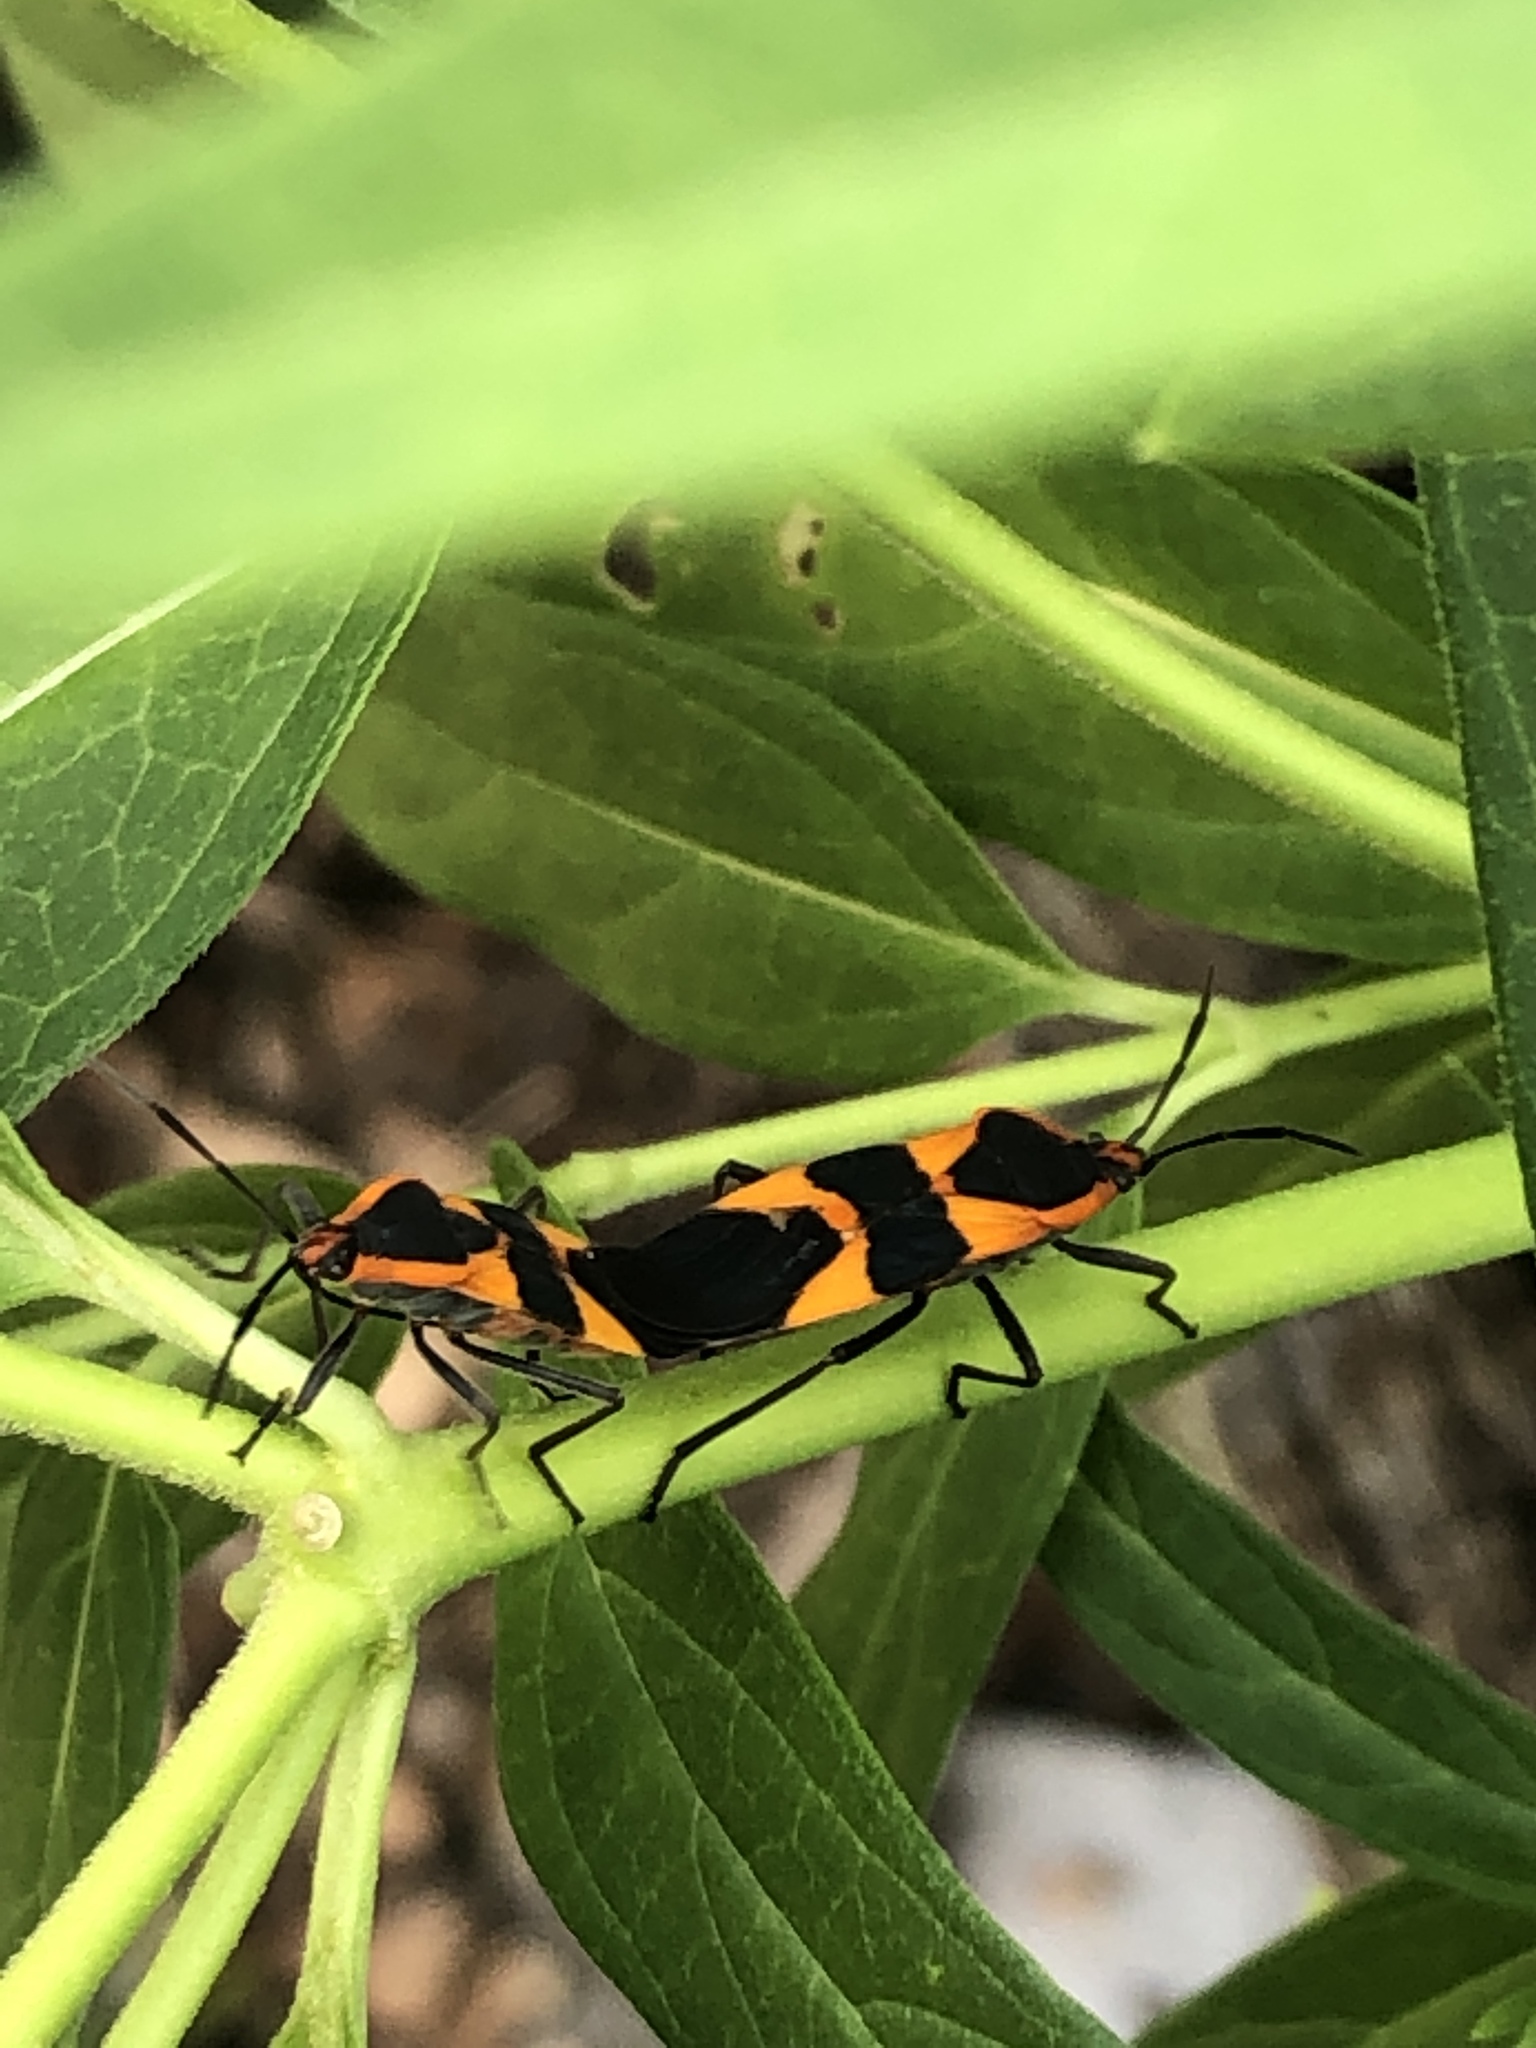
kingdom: Animalia
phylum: Arthropoda
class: Insecta
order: Hemiptera
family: Lygaeidae
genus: Oncopeltus
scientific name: Oncopeltus fasciatus
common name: Large milkweed bug
